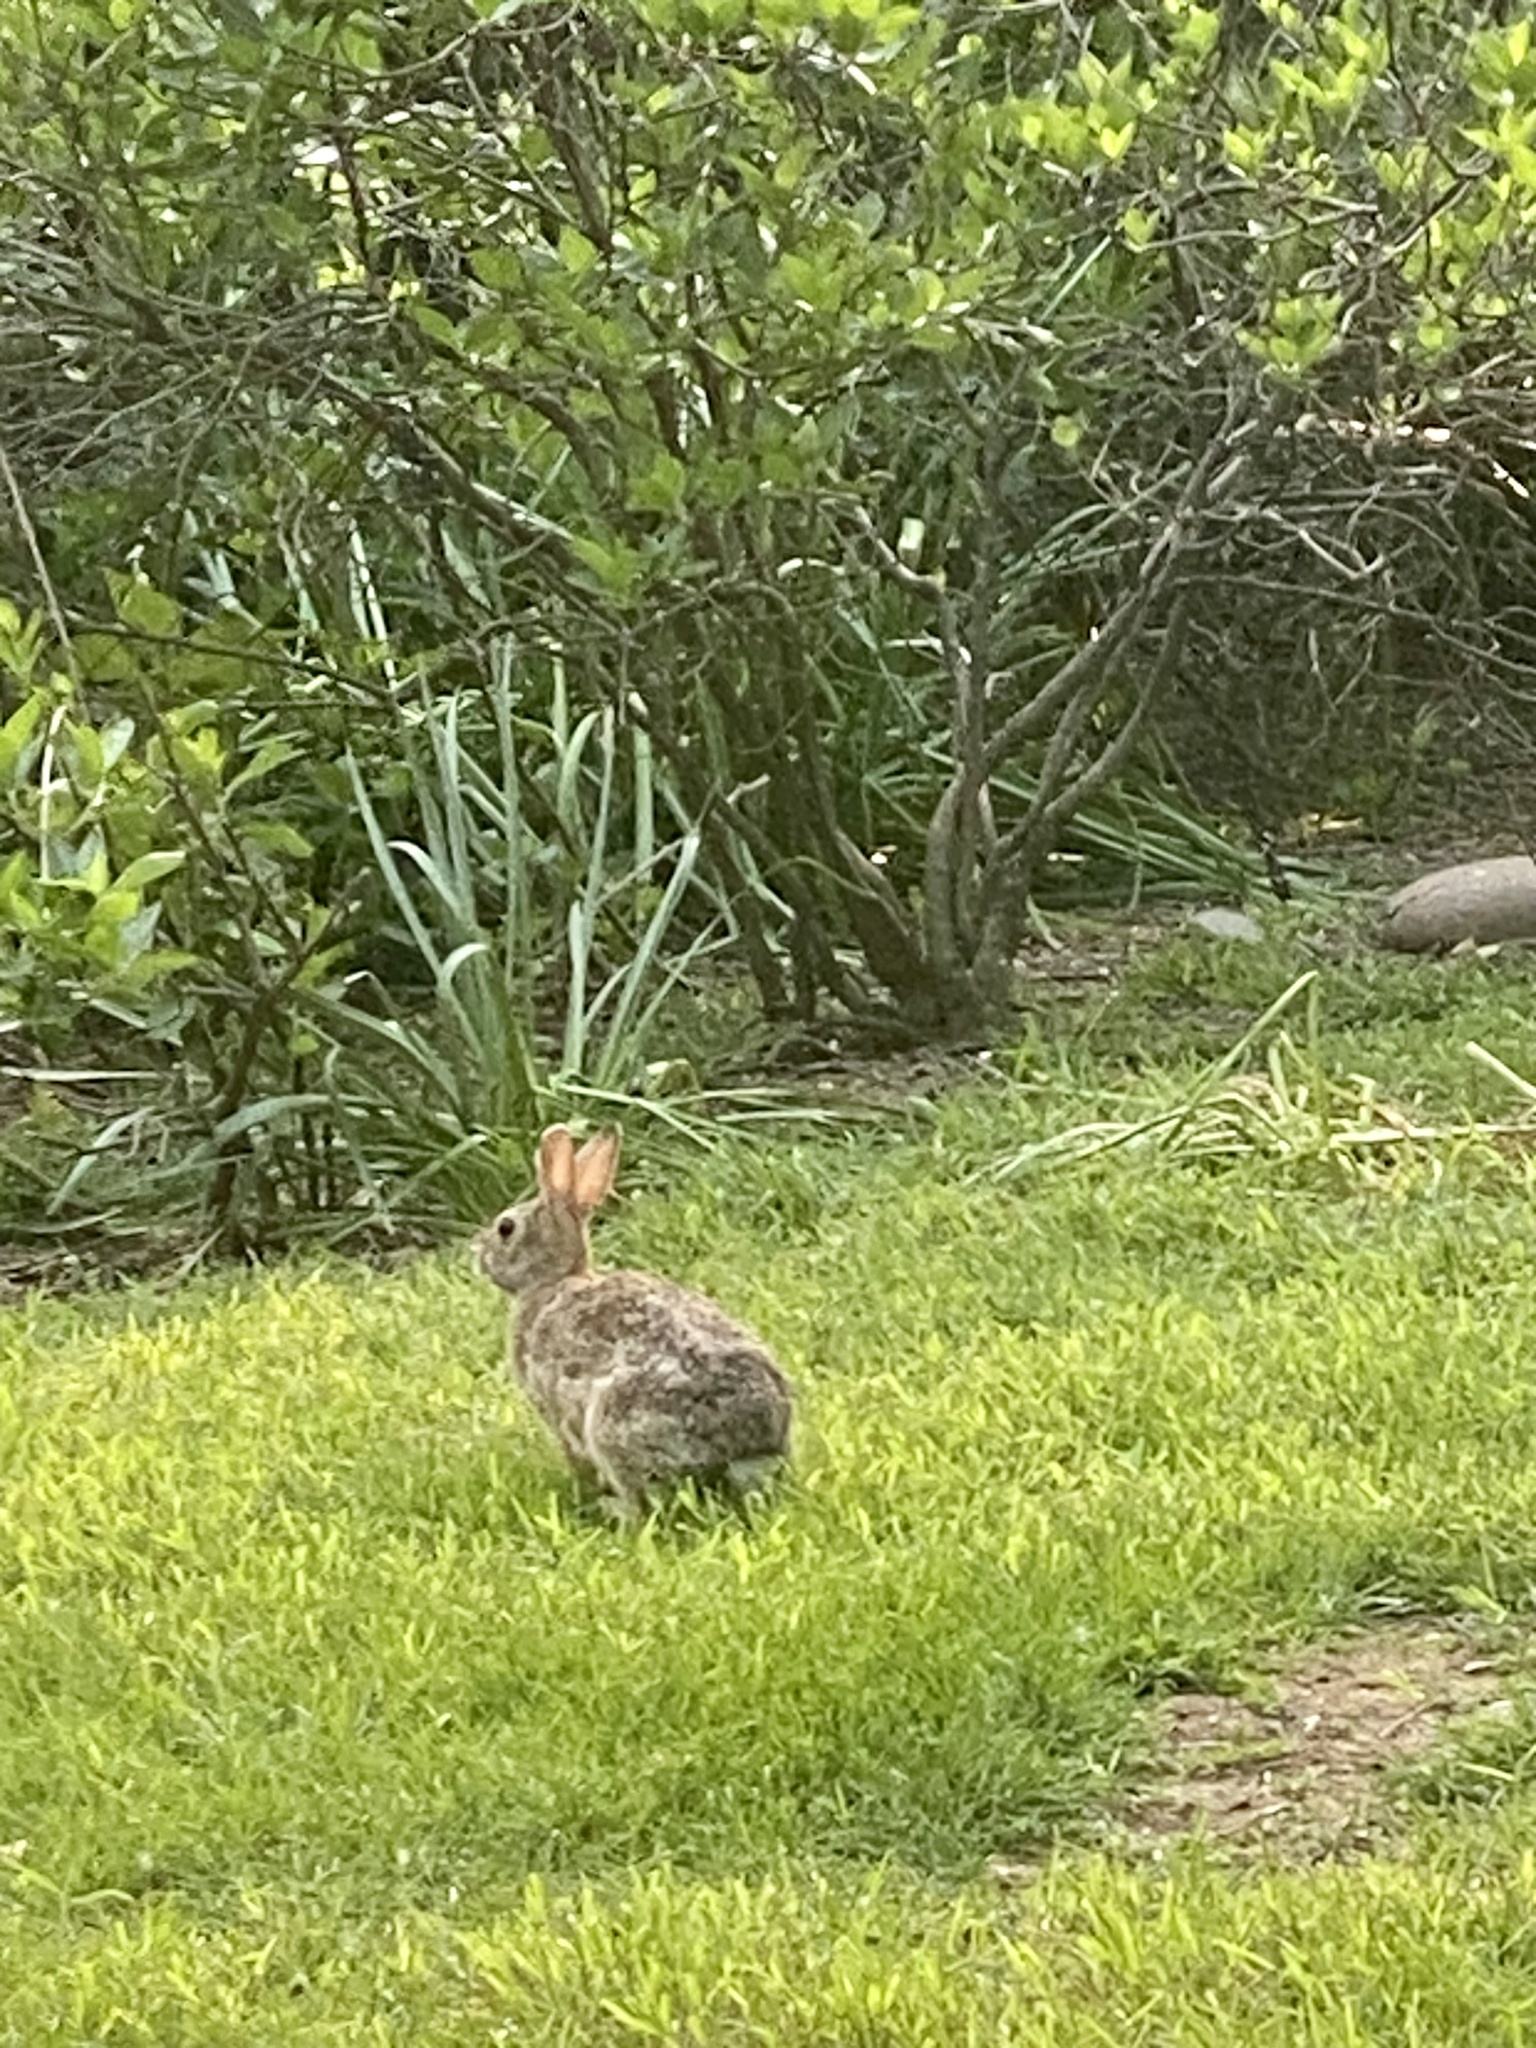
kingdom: Animalia
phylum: Chordata
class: Mammalia
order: Lagomorpha
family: Leporidae
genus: Sylvilagus
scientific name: Sylvilagus floridanus
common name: Eastern cottontail
